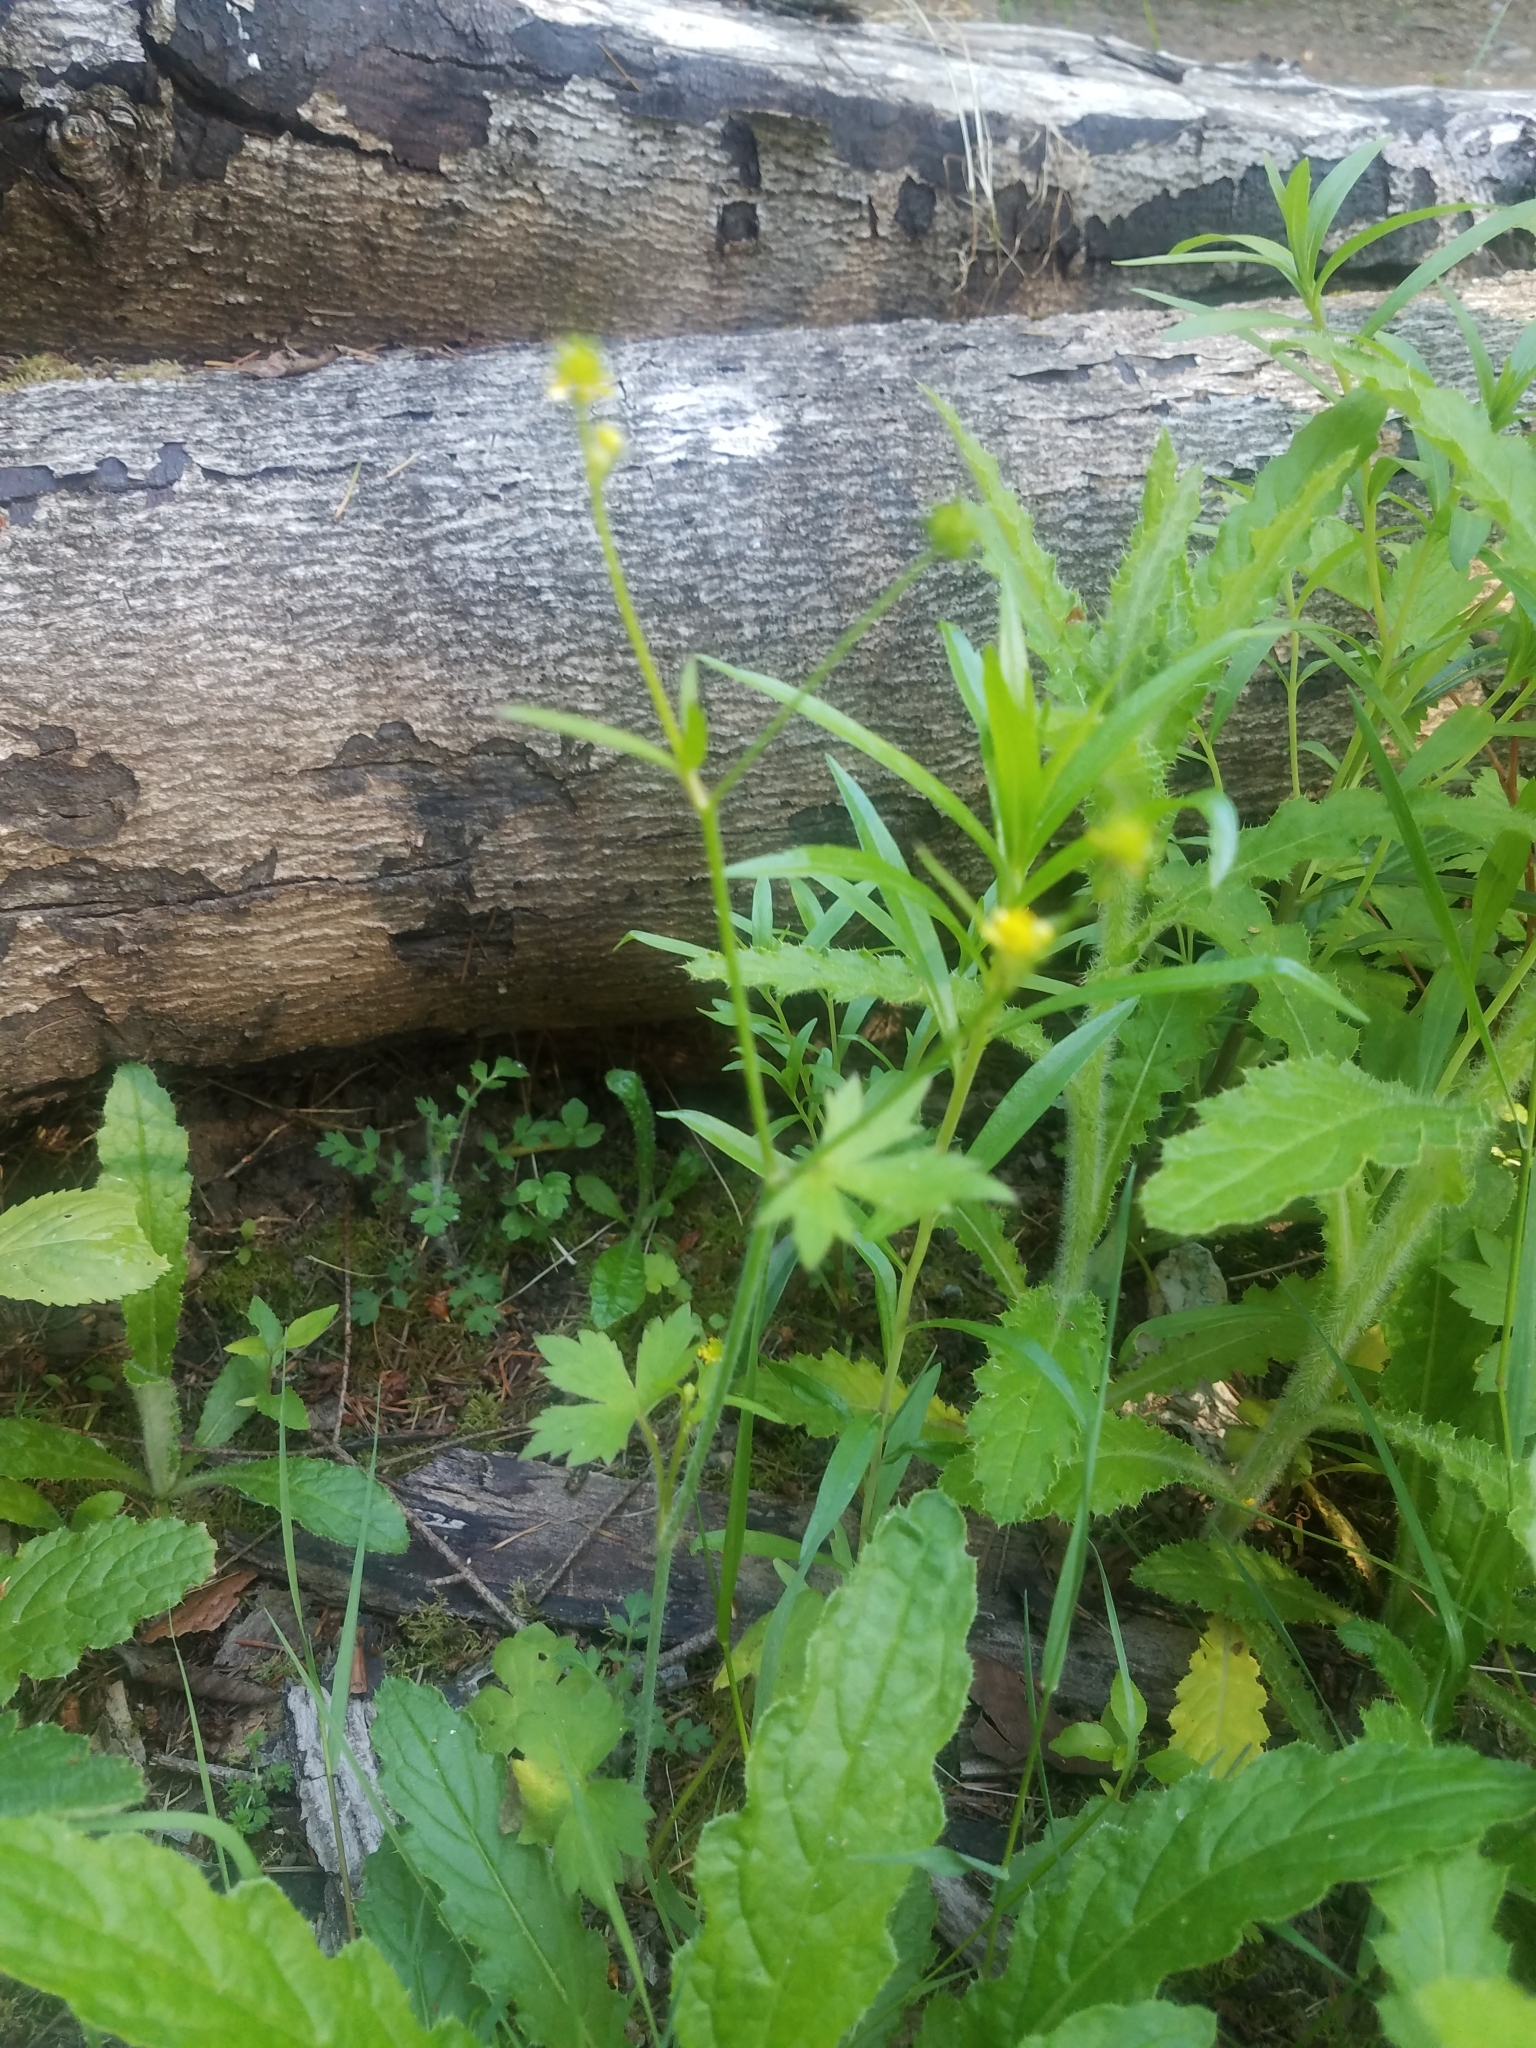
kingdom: Plantae
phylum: Tracheophyta
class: Magnoliopsida
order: Ranunculales
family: Ranunculaceae
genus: Ranunculus
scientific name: Ranunculus uncinatus
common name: Little buttercup
